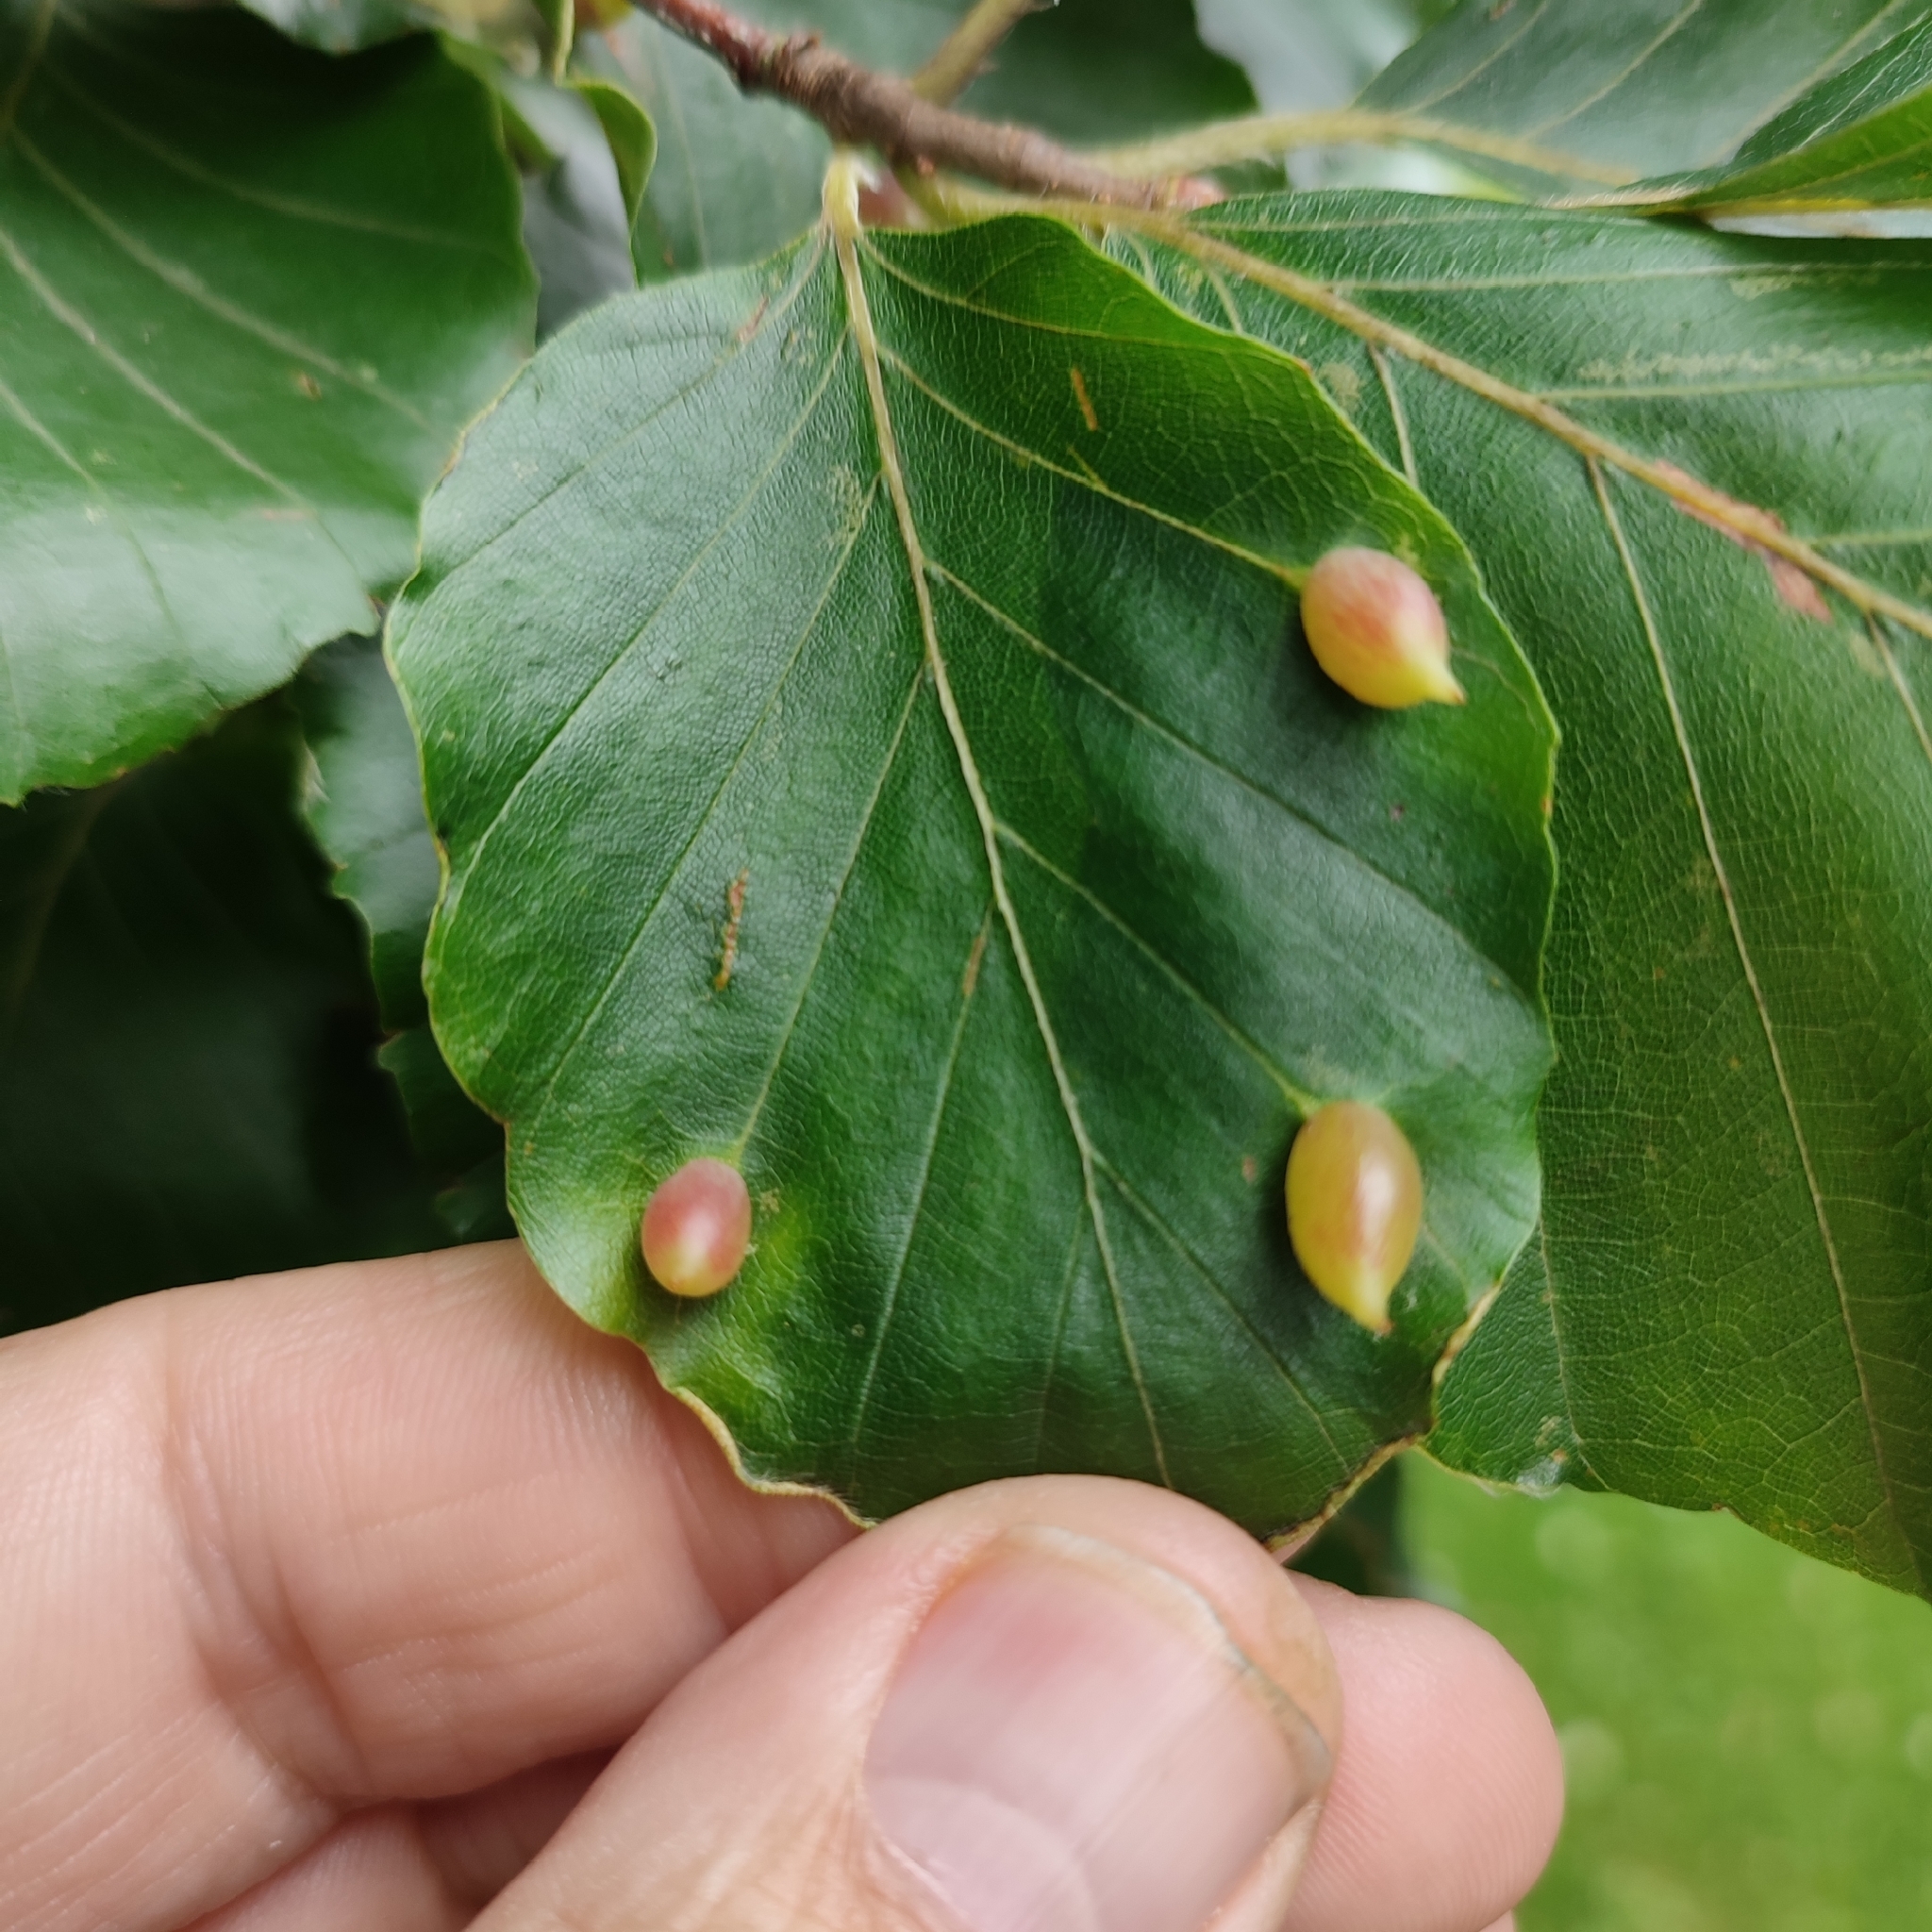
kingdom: Animalia
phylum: Arthropoda
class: Insecta
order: Diptera
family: Cecidomyiidae
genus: Mikiola
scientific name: Mikiola fagi
